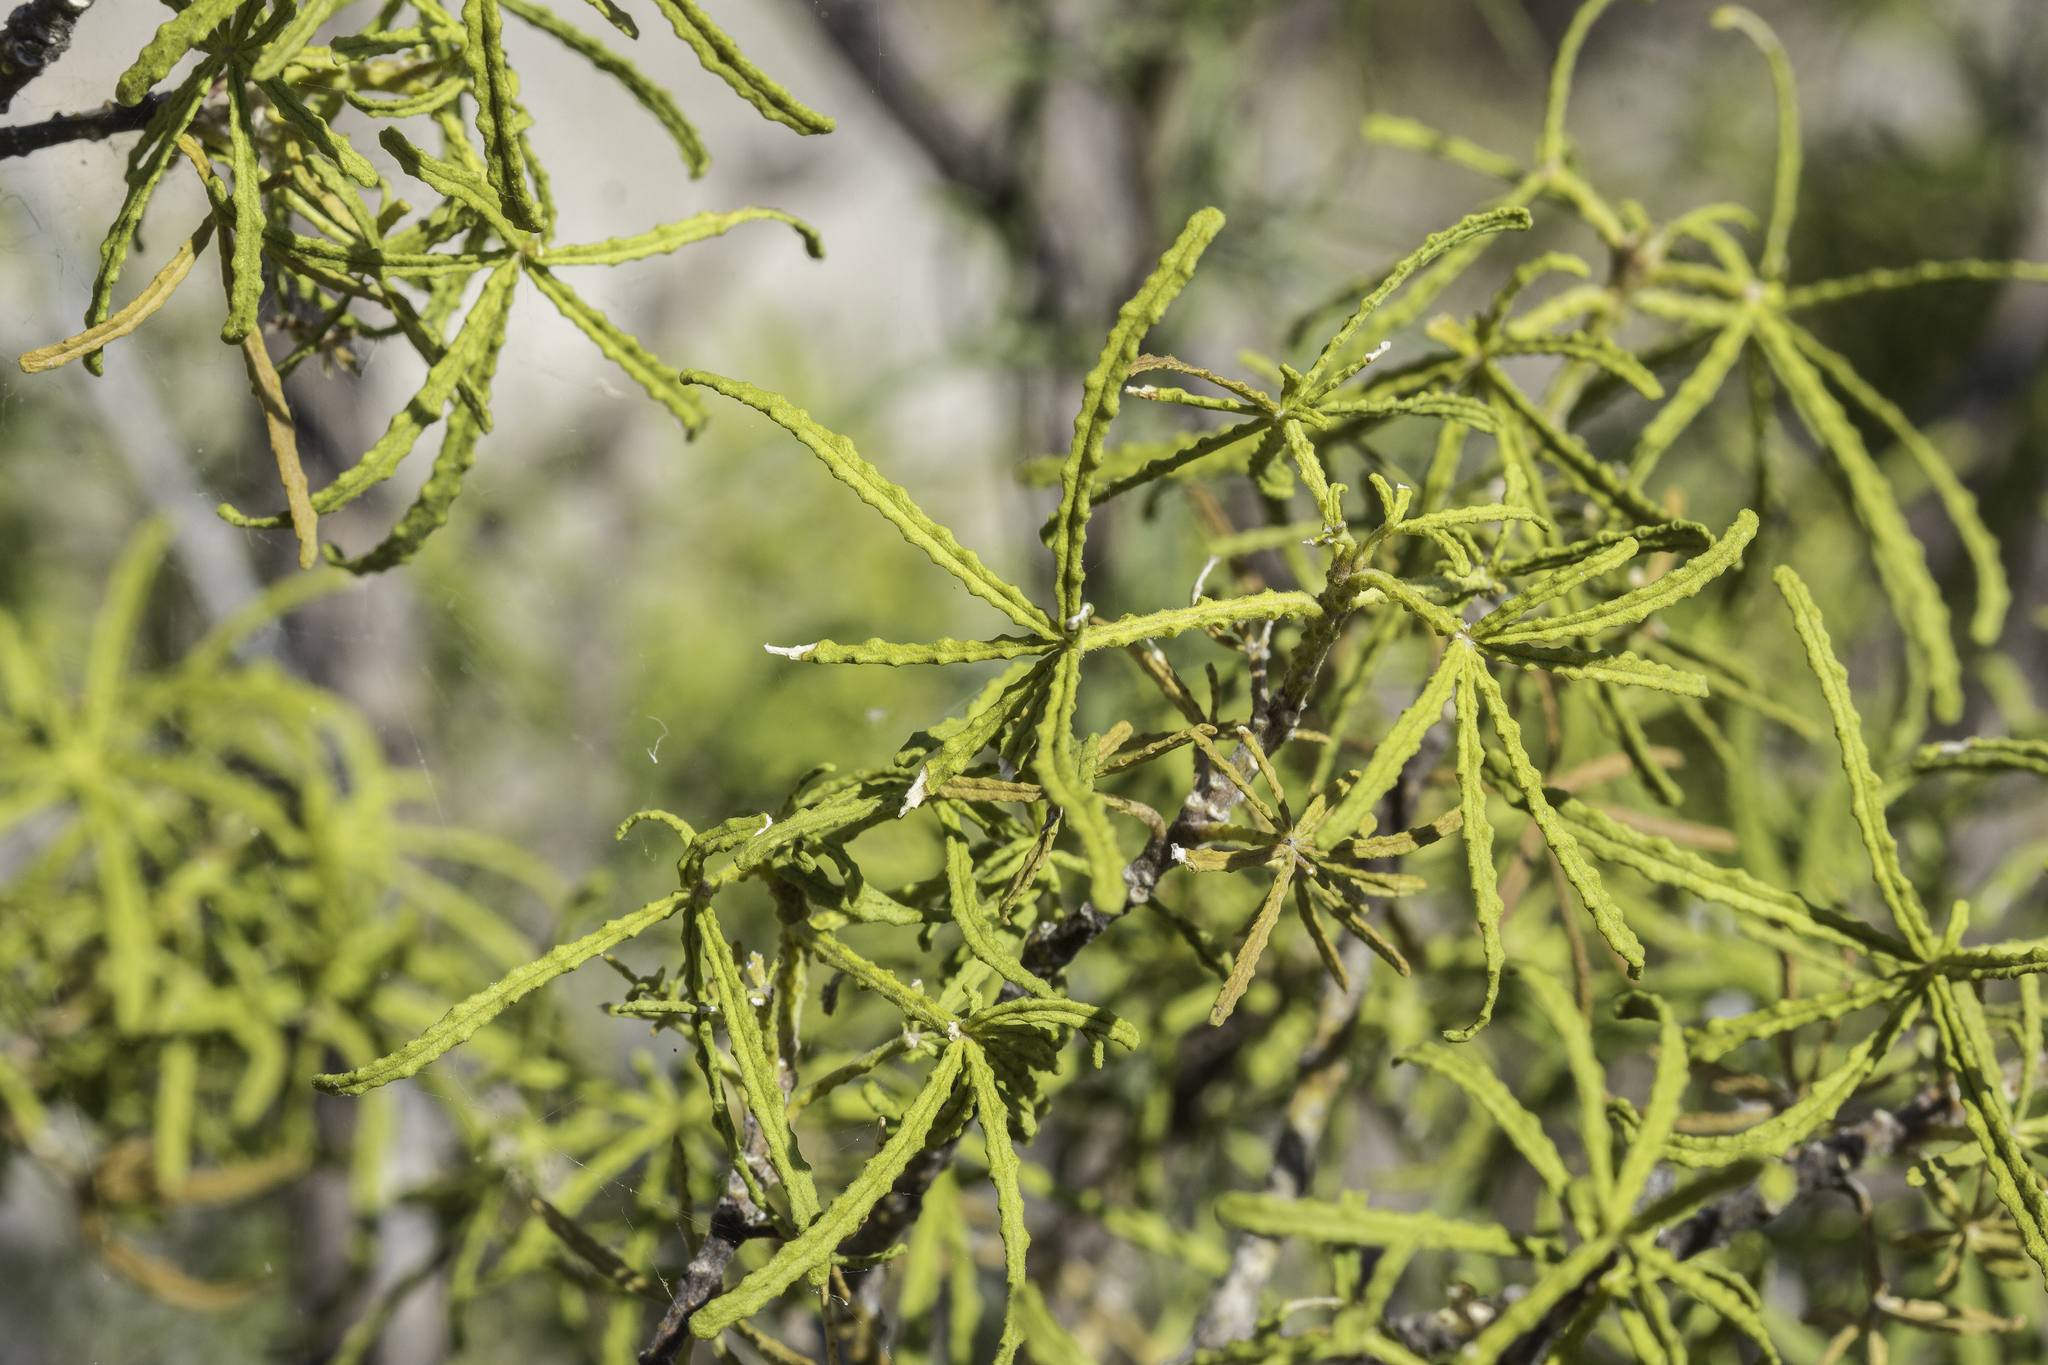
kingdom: Plantae
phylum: Tracheophyta
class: Magnoliopsida
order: Sapindales
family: Rutaceae
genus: Choisya
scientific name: Choisya dumosa
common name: Mexican-orange
